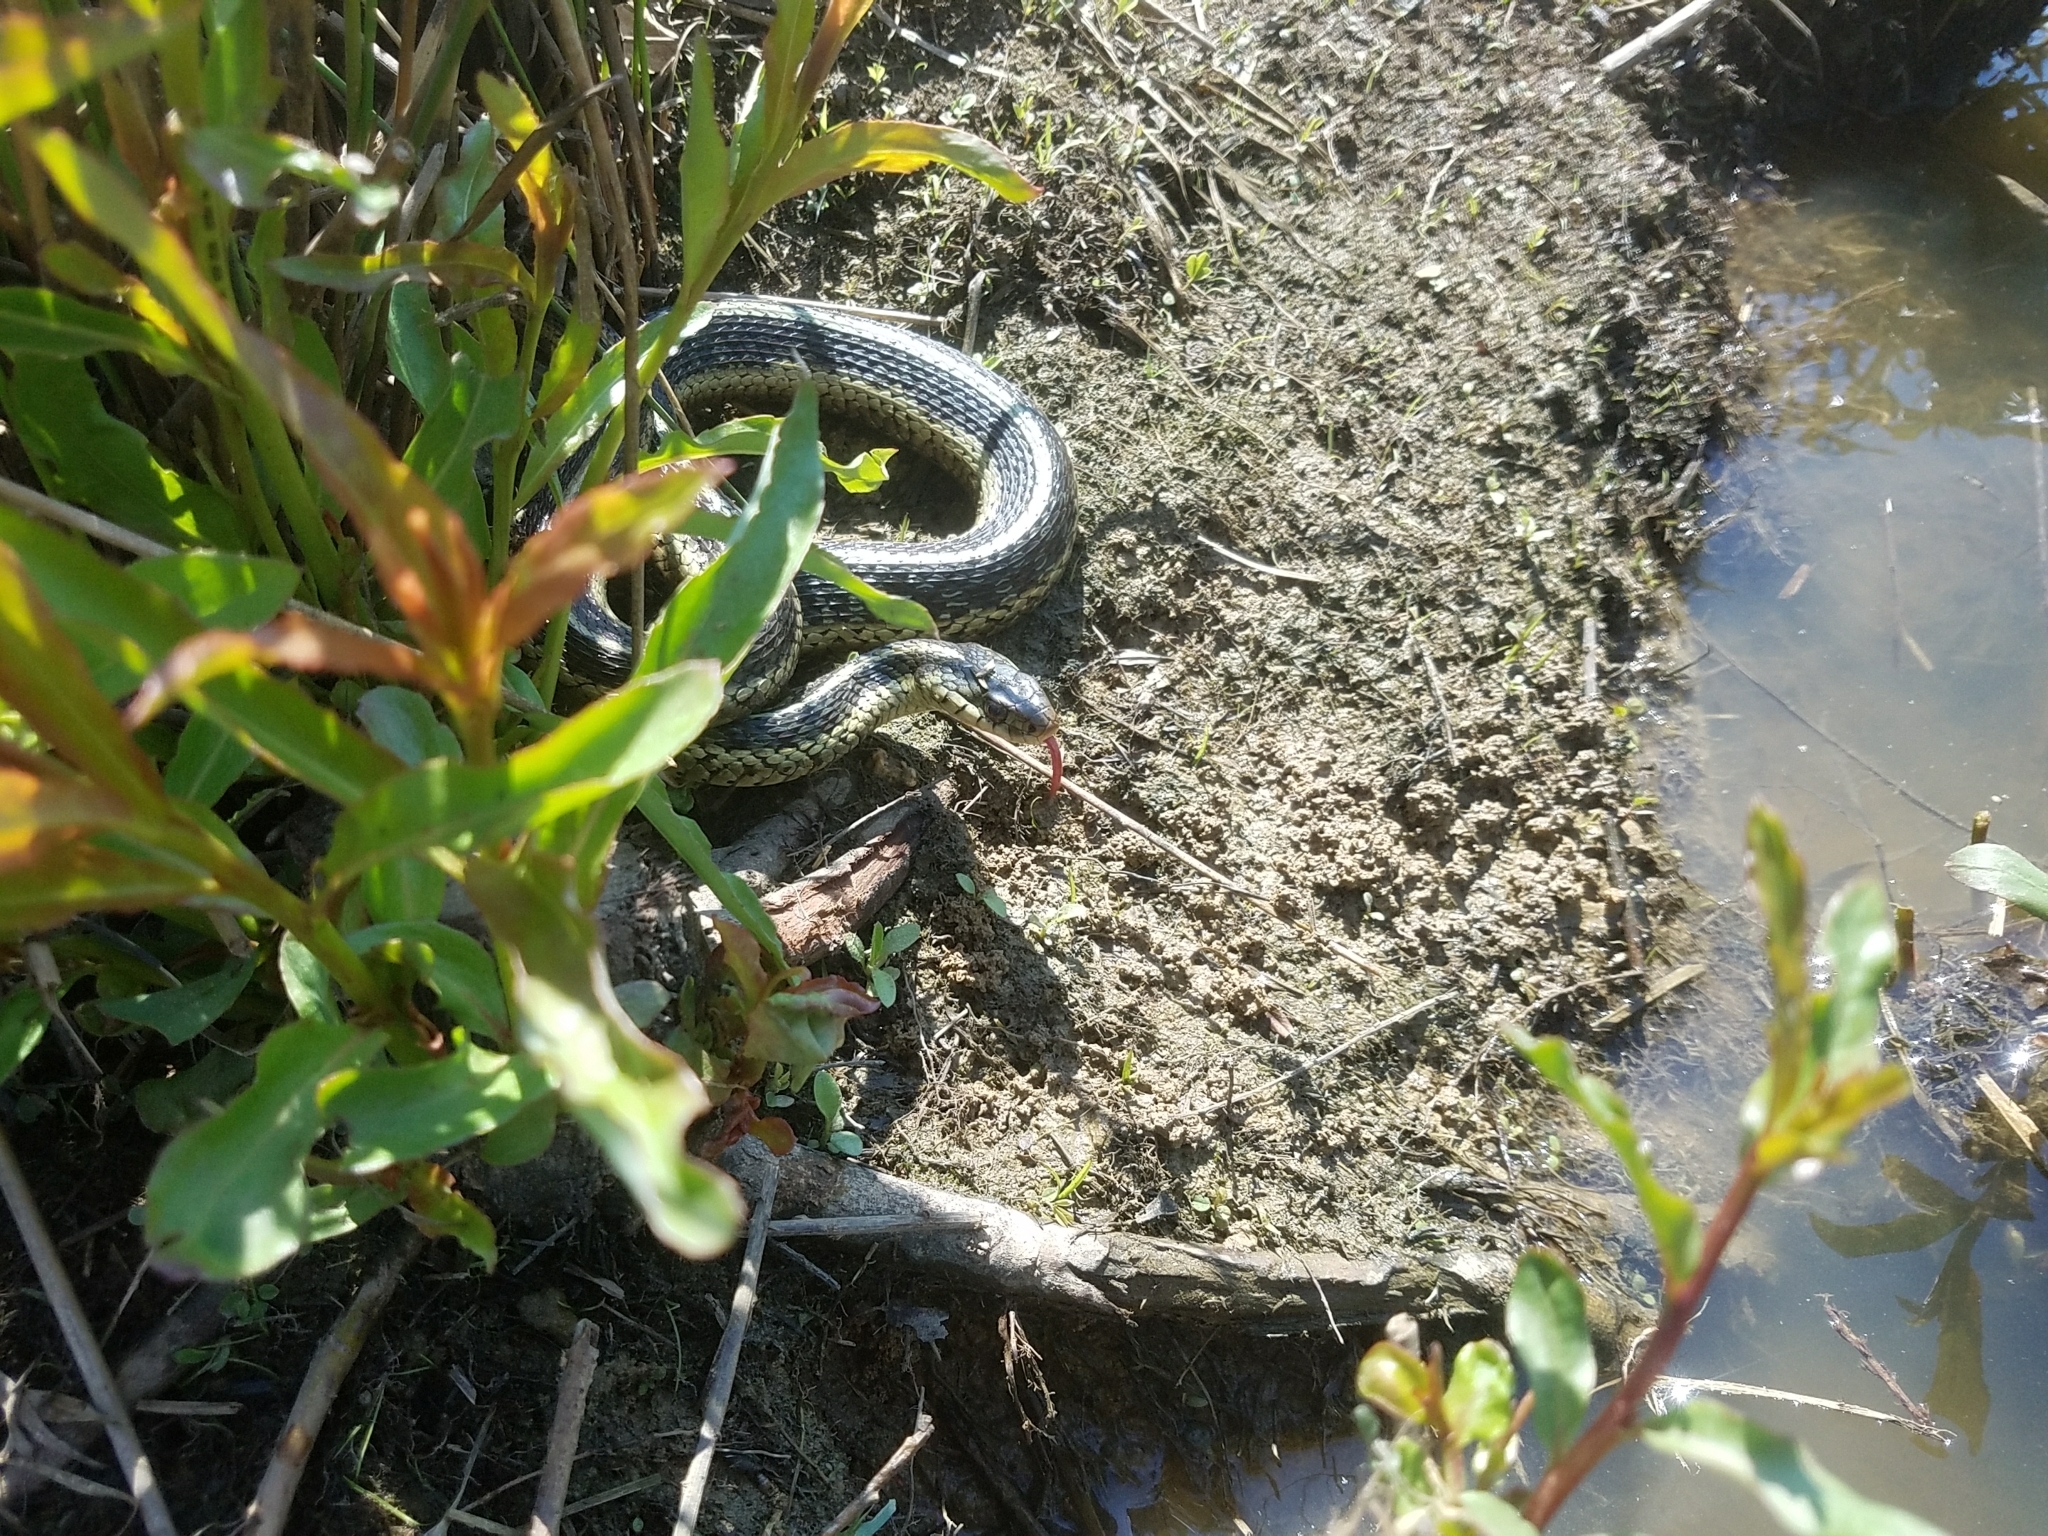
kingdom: Animalia
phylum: Chordata
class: Squamata
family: Colubridae
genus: Thamnophis
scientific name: Thamnophis sirtalis
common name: Common garter snake
